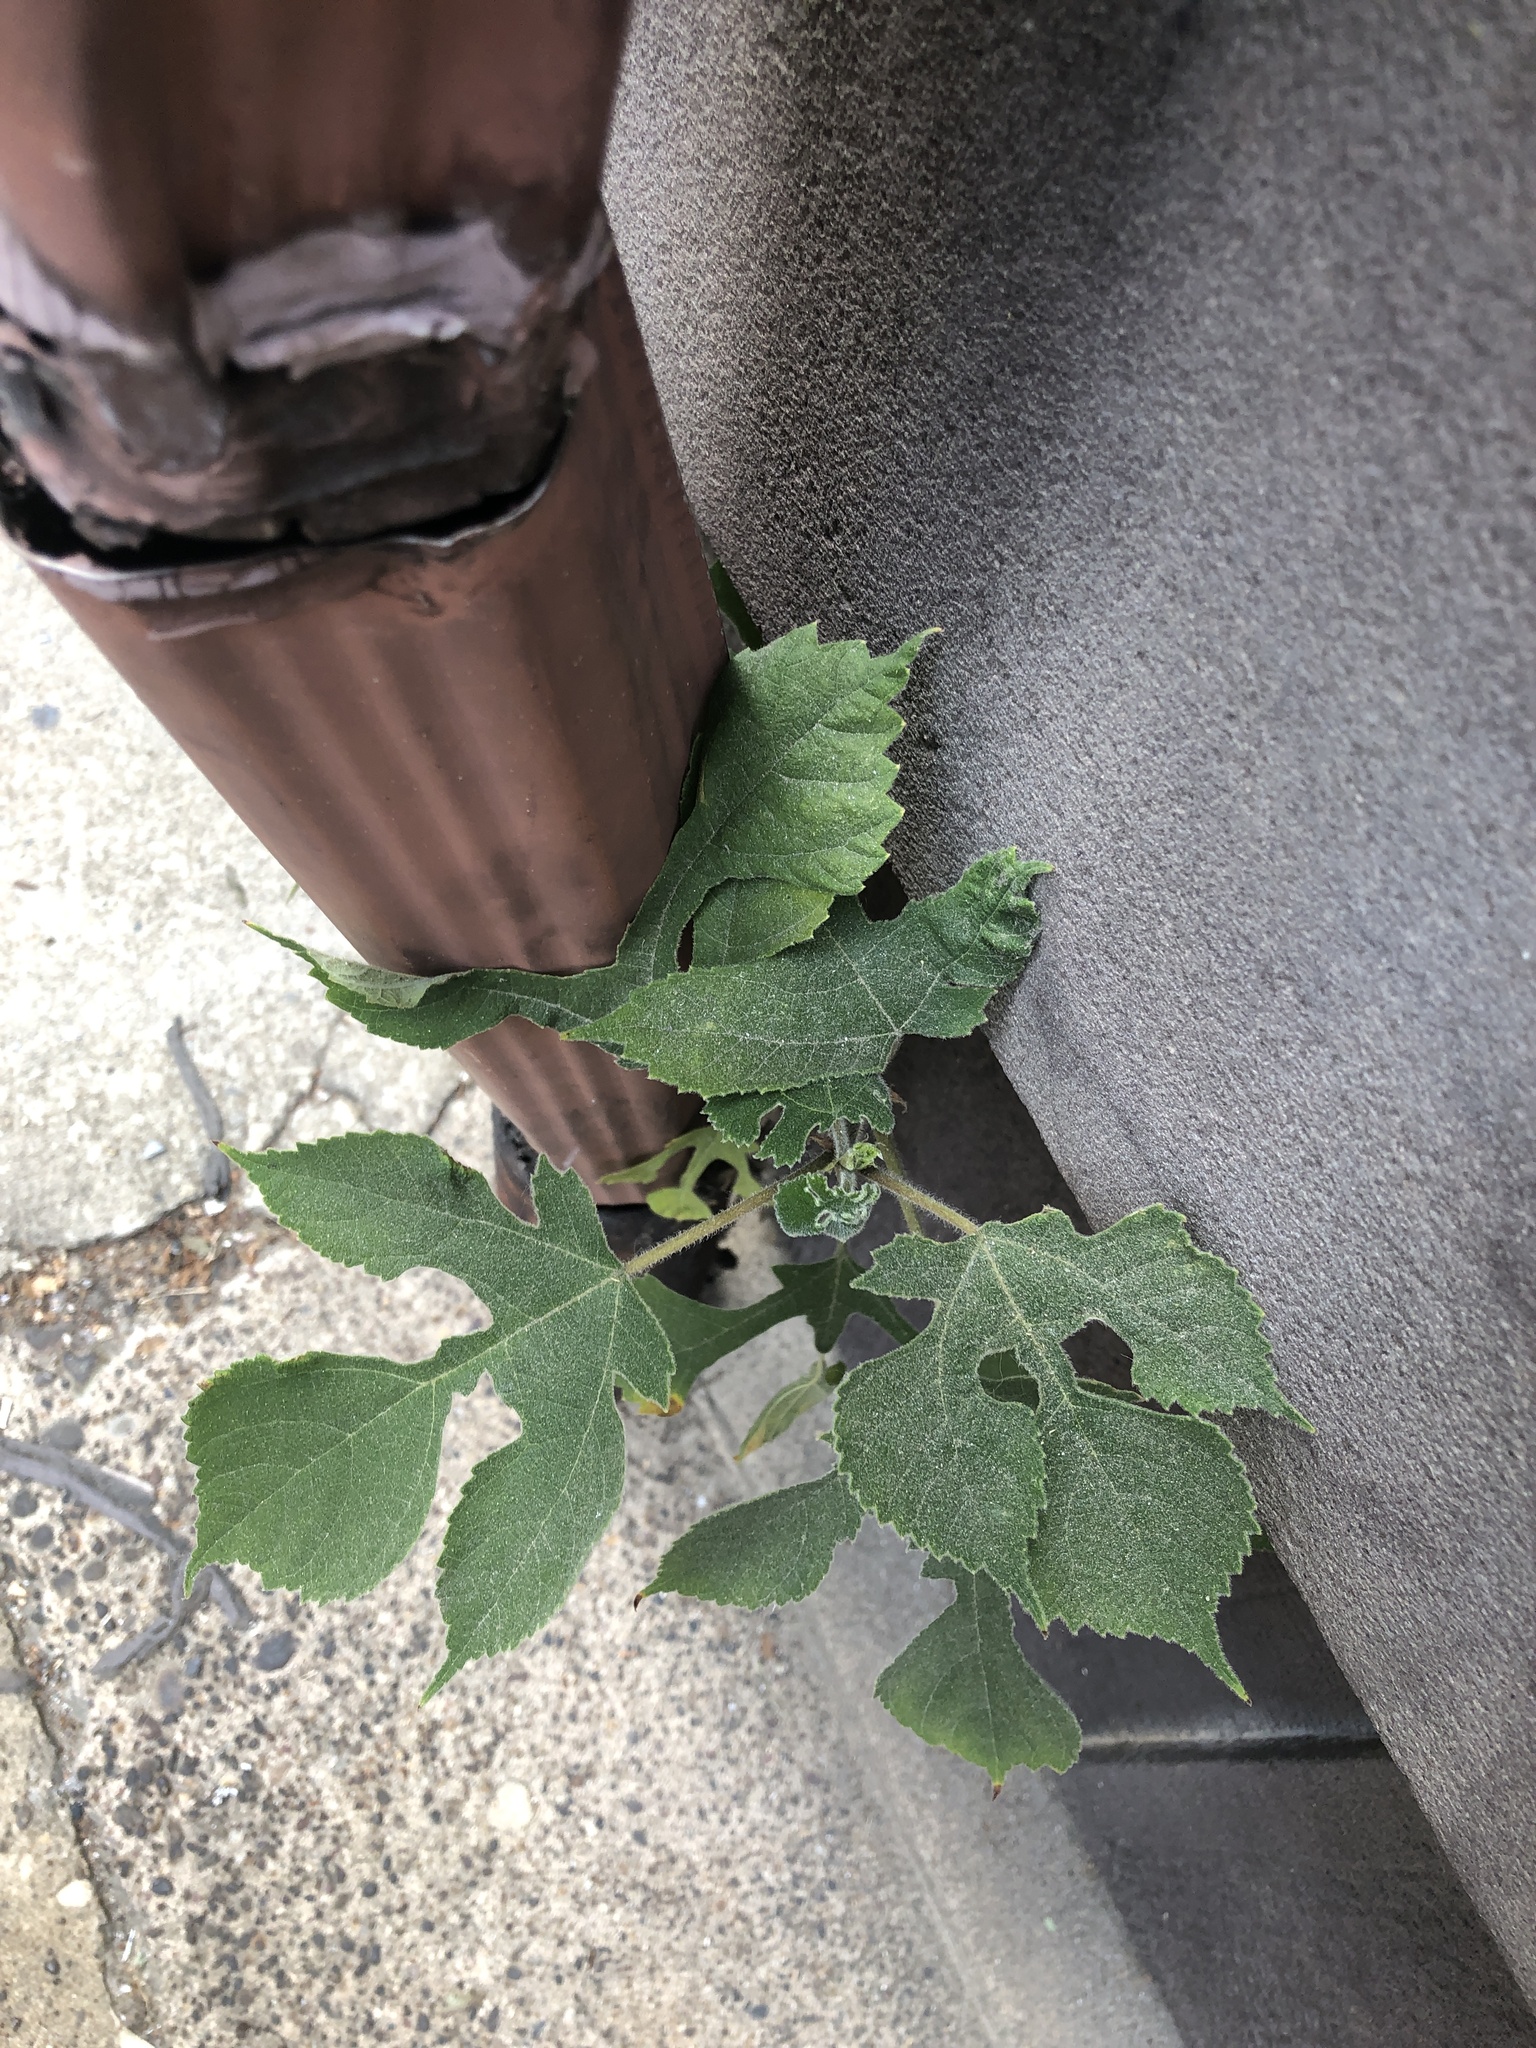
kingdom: Plantae
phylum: Tracheophyta
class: Magnoliopsida
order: Rosales
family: Moraceae
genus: Broussonetia
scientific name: Broussonetia papyrifera
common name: Paper mulberry
